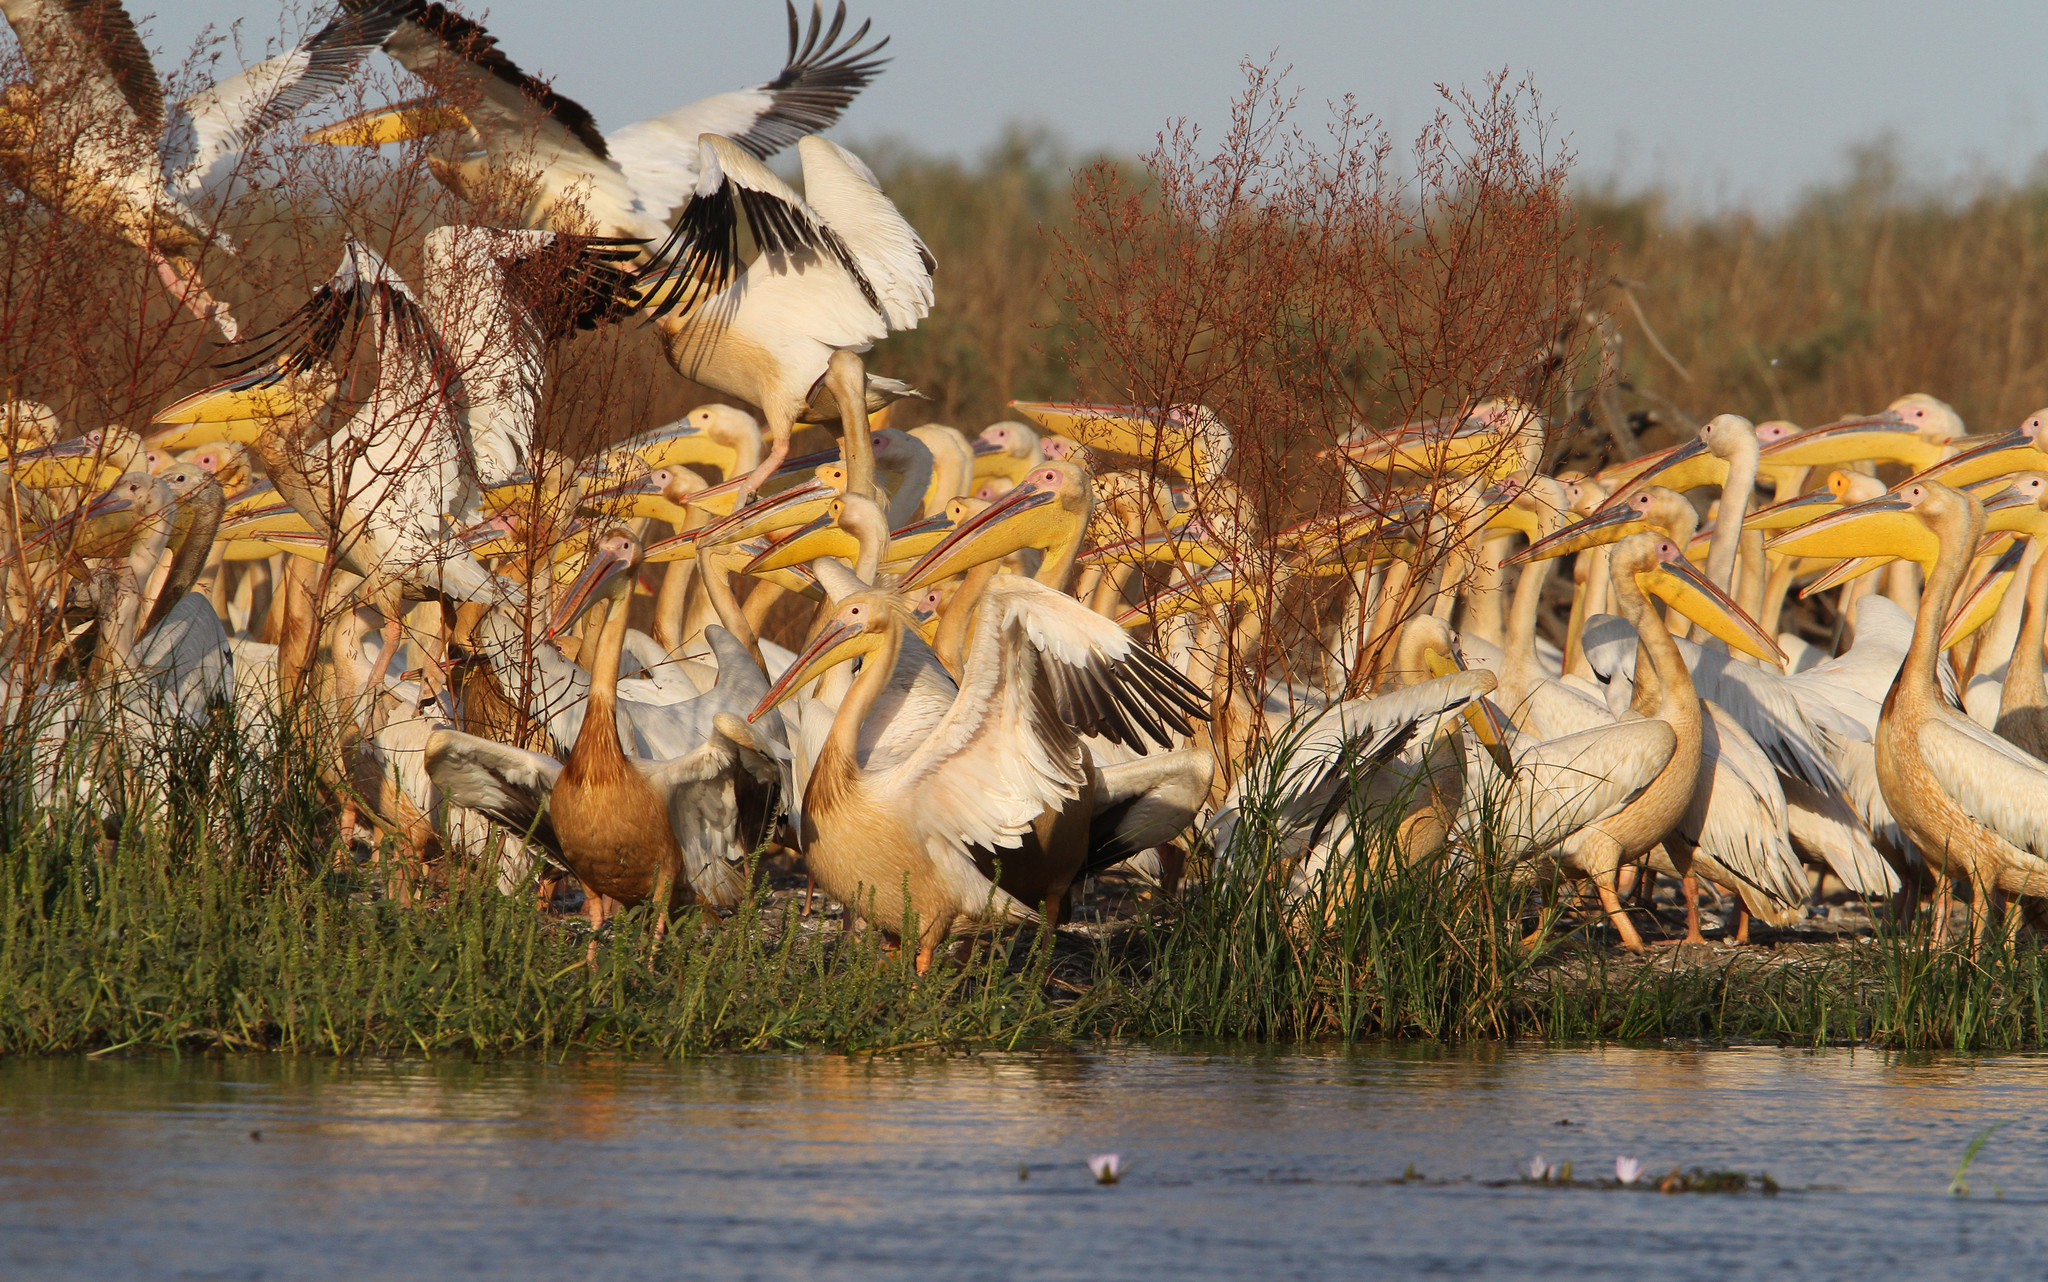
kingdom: Animalia
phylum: Chordata
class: Aves
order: Pelecaniformes
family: Pelecanidae
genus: Pelecanus
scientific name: Pelecanus onocrotalus
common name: Great white pelican
